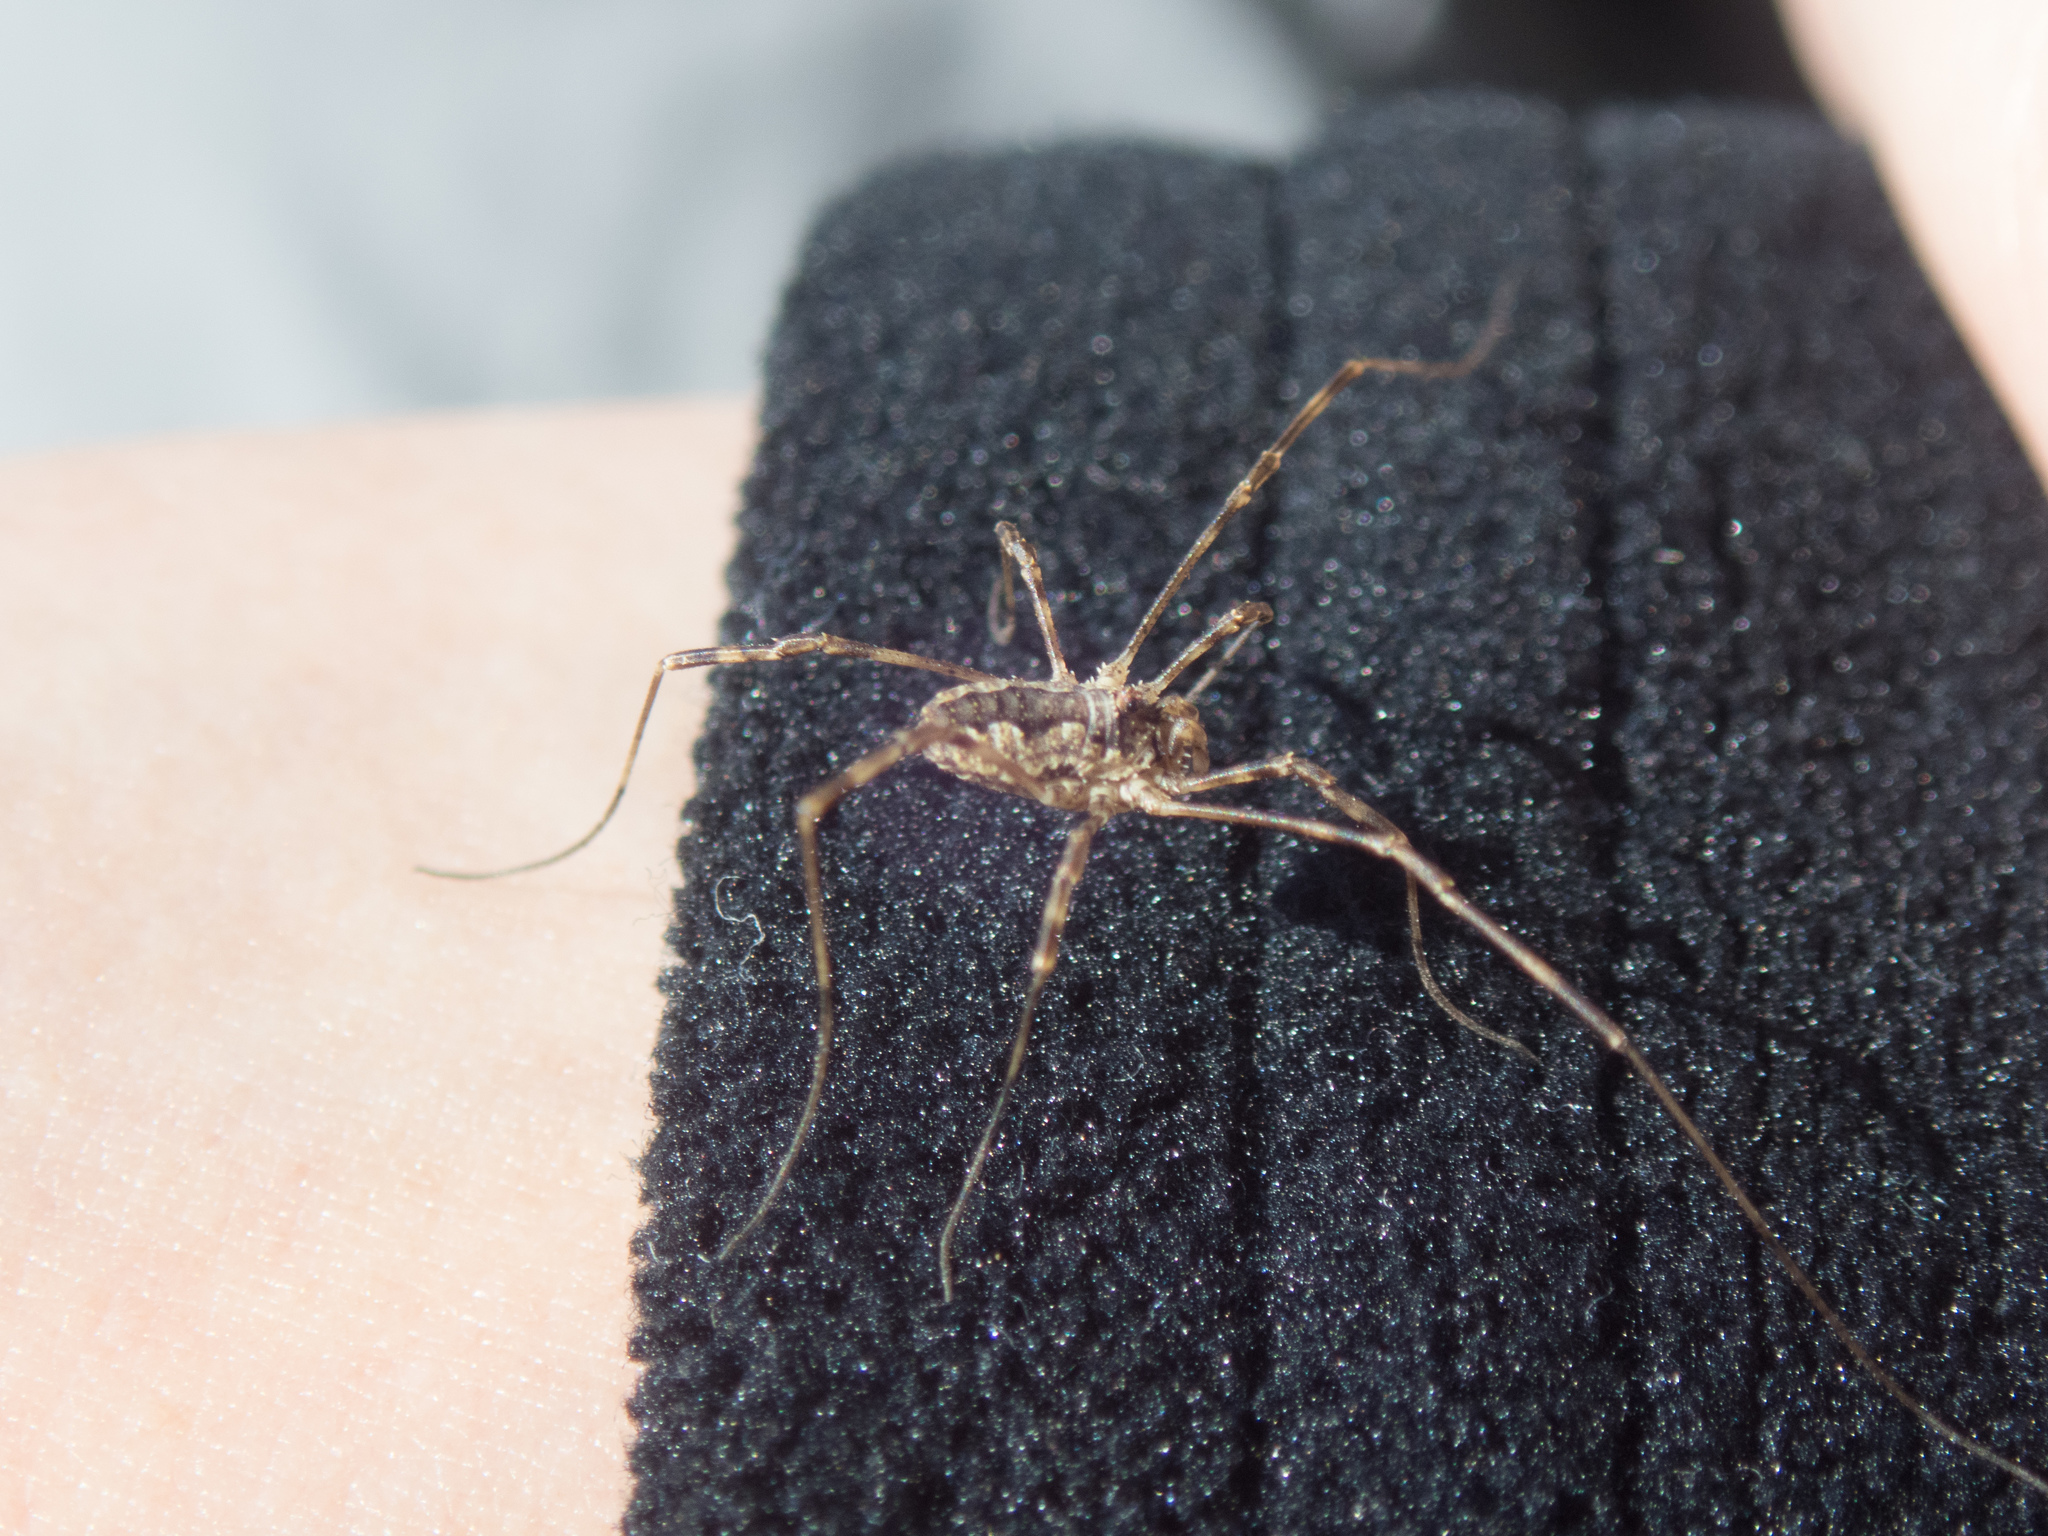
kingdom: Animalia
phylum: Arthropoda
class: Arachnida
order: Opiliones
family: Phalangiidae
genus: Odiellus
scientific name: Odiellus pictus
